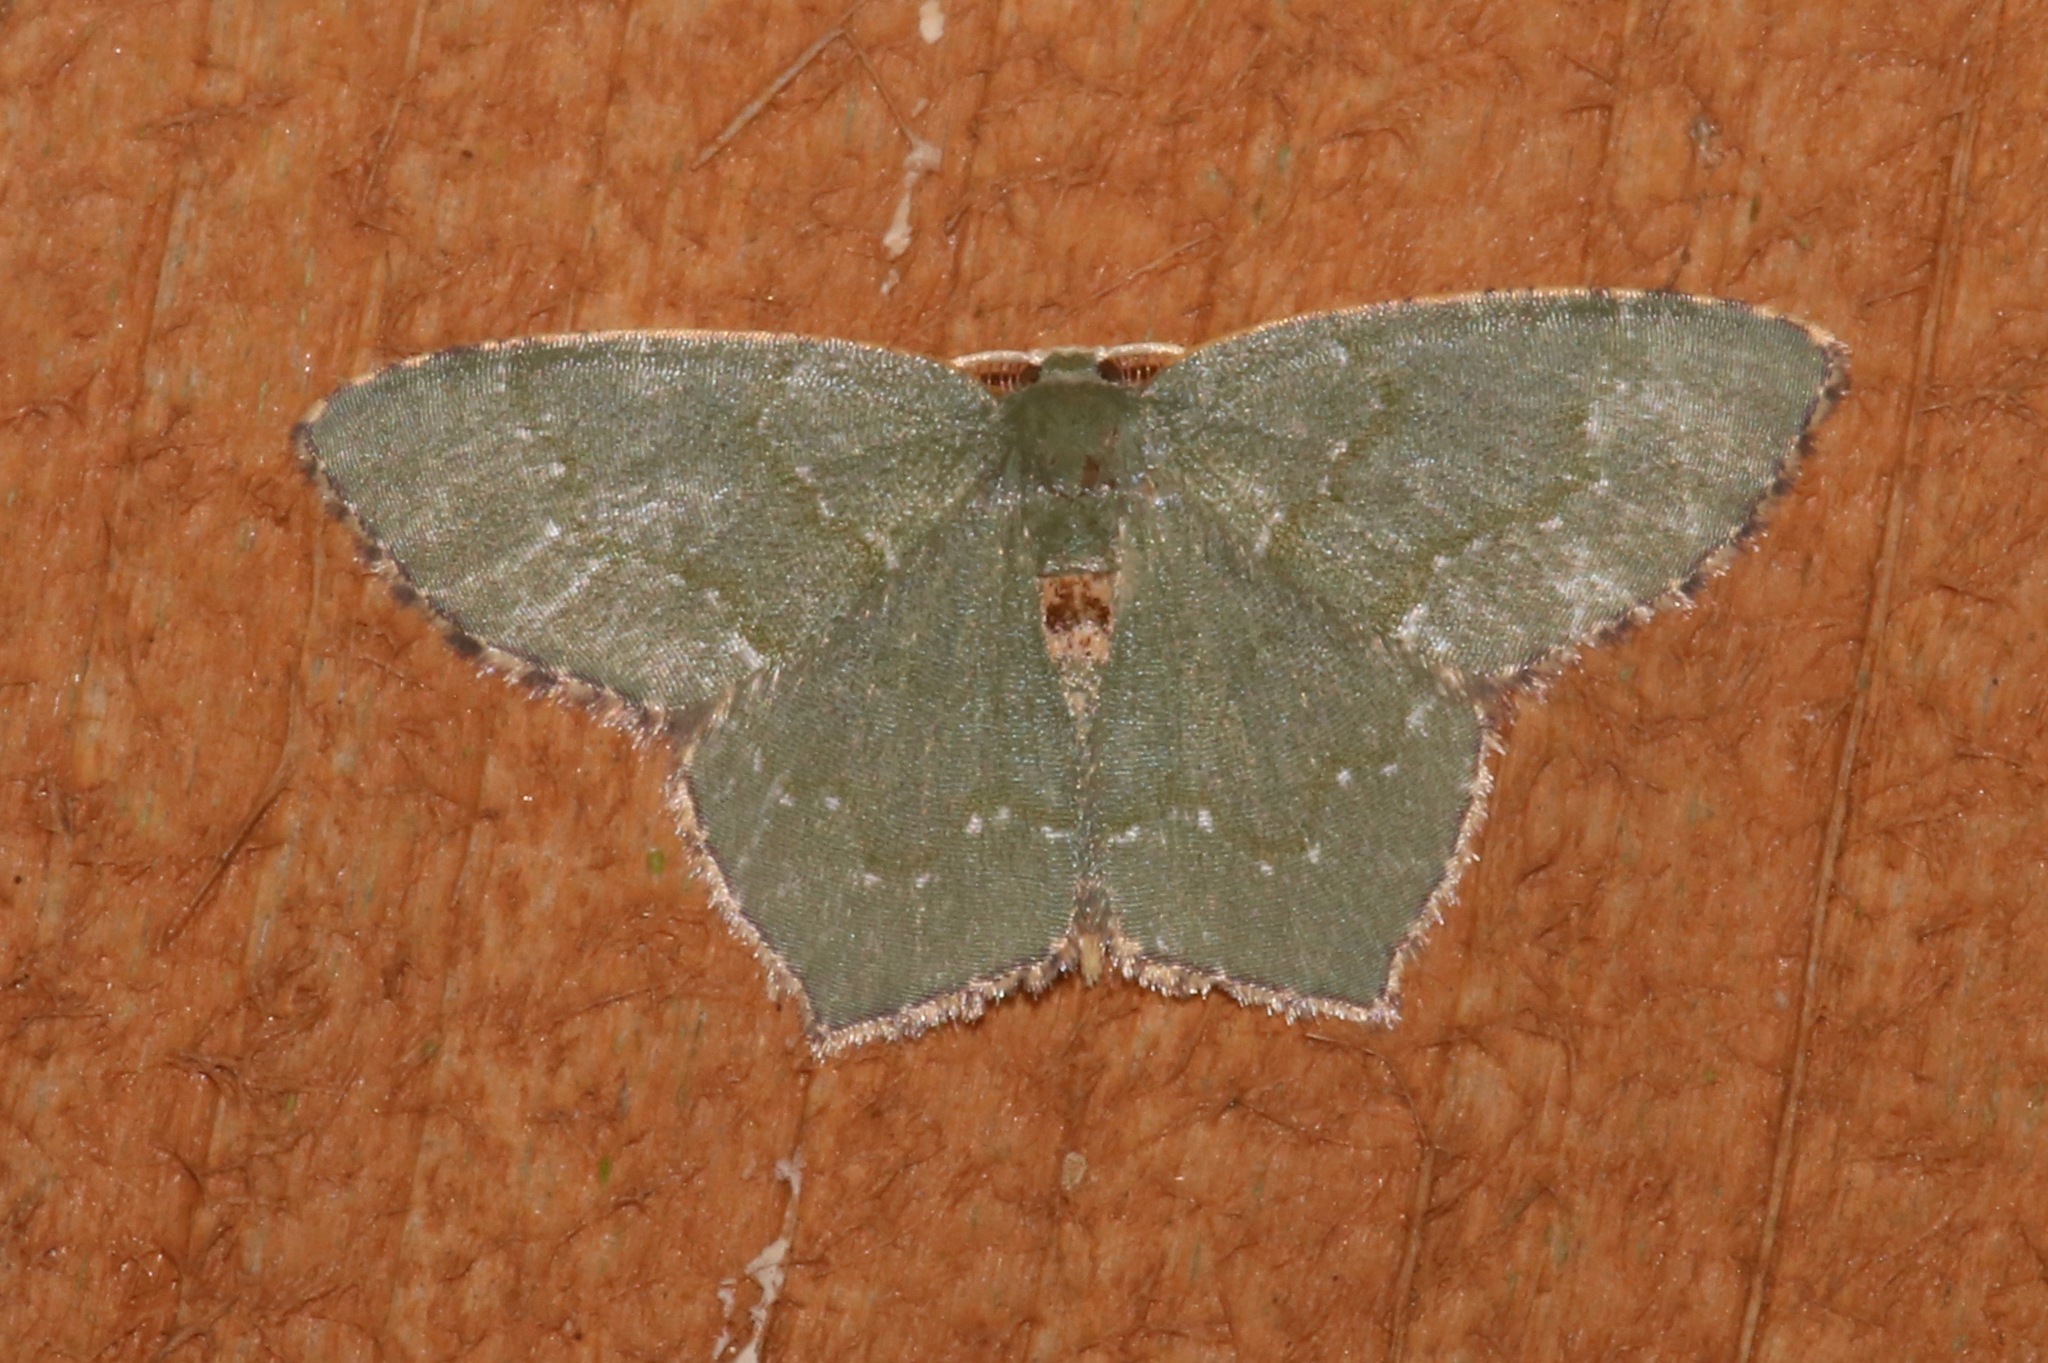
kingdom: Animalia
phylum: Arthropoda
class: Insecta
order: Lepidoptera
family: Geometridae
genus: Chloropteryx
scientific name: Chloropteryx tepperaria
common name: Angle winged emerald moth
